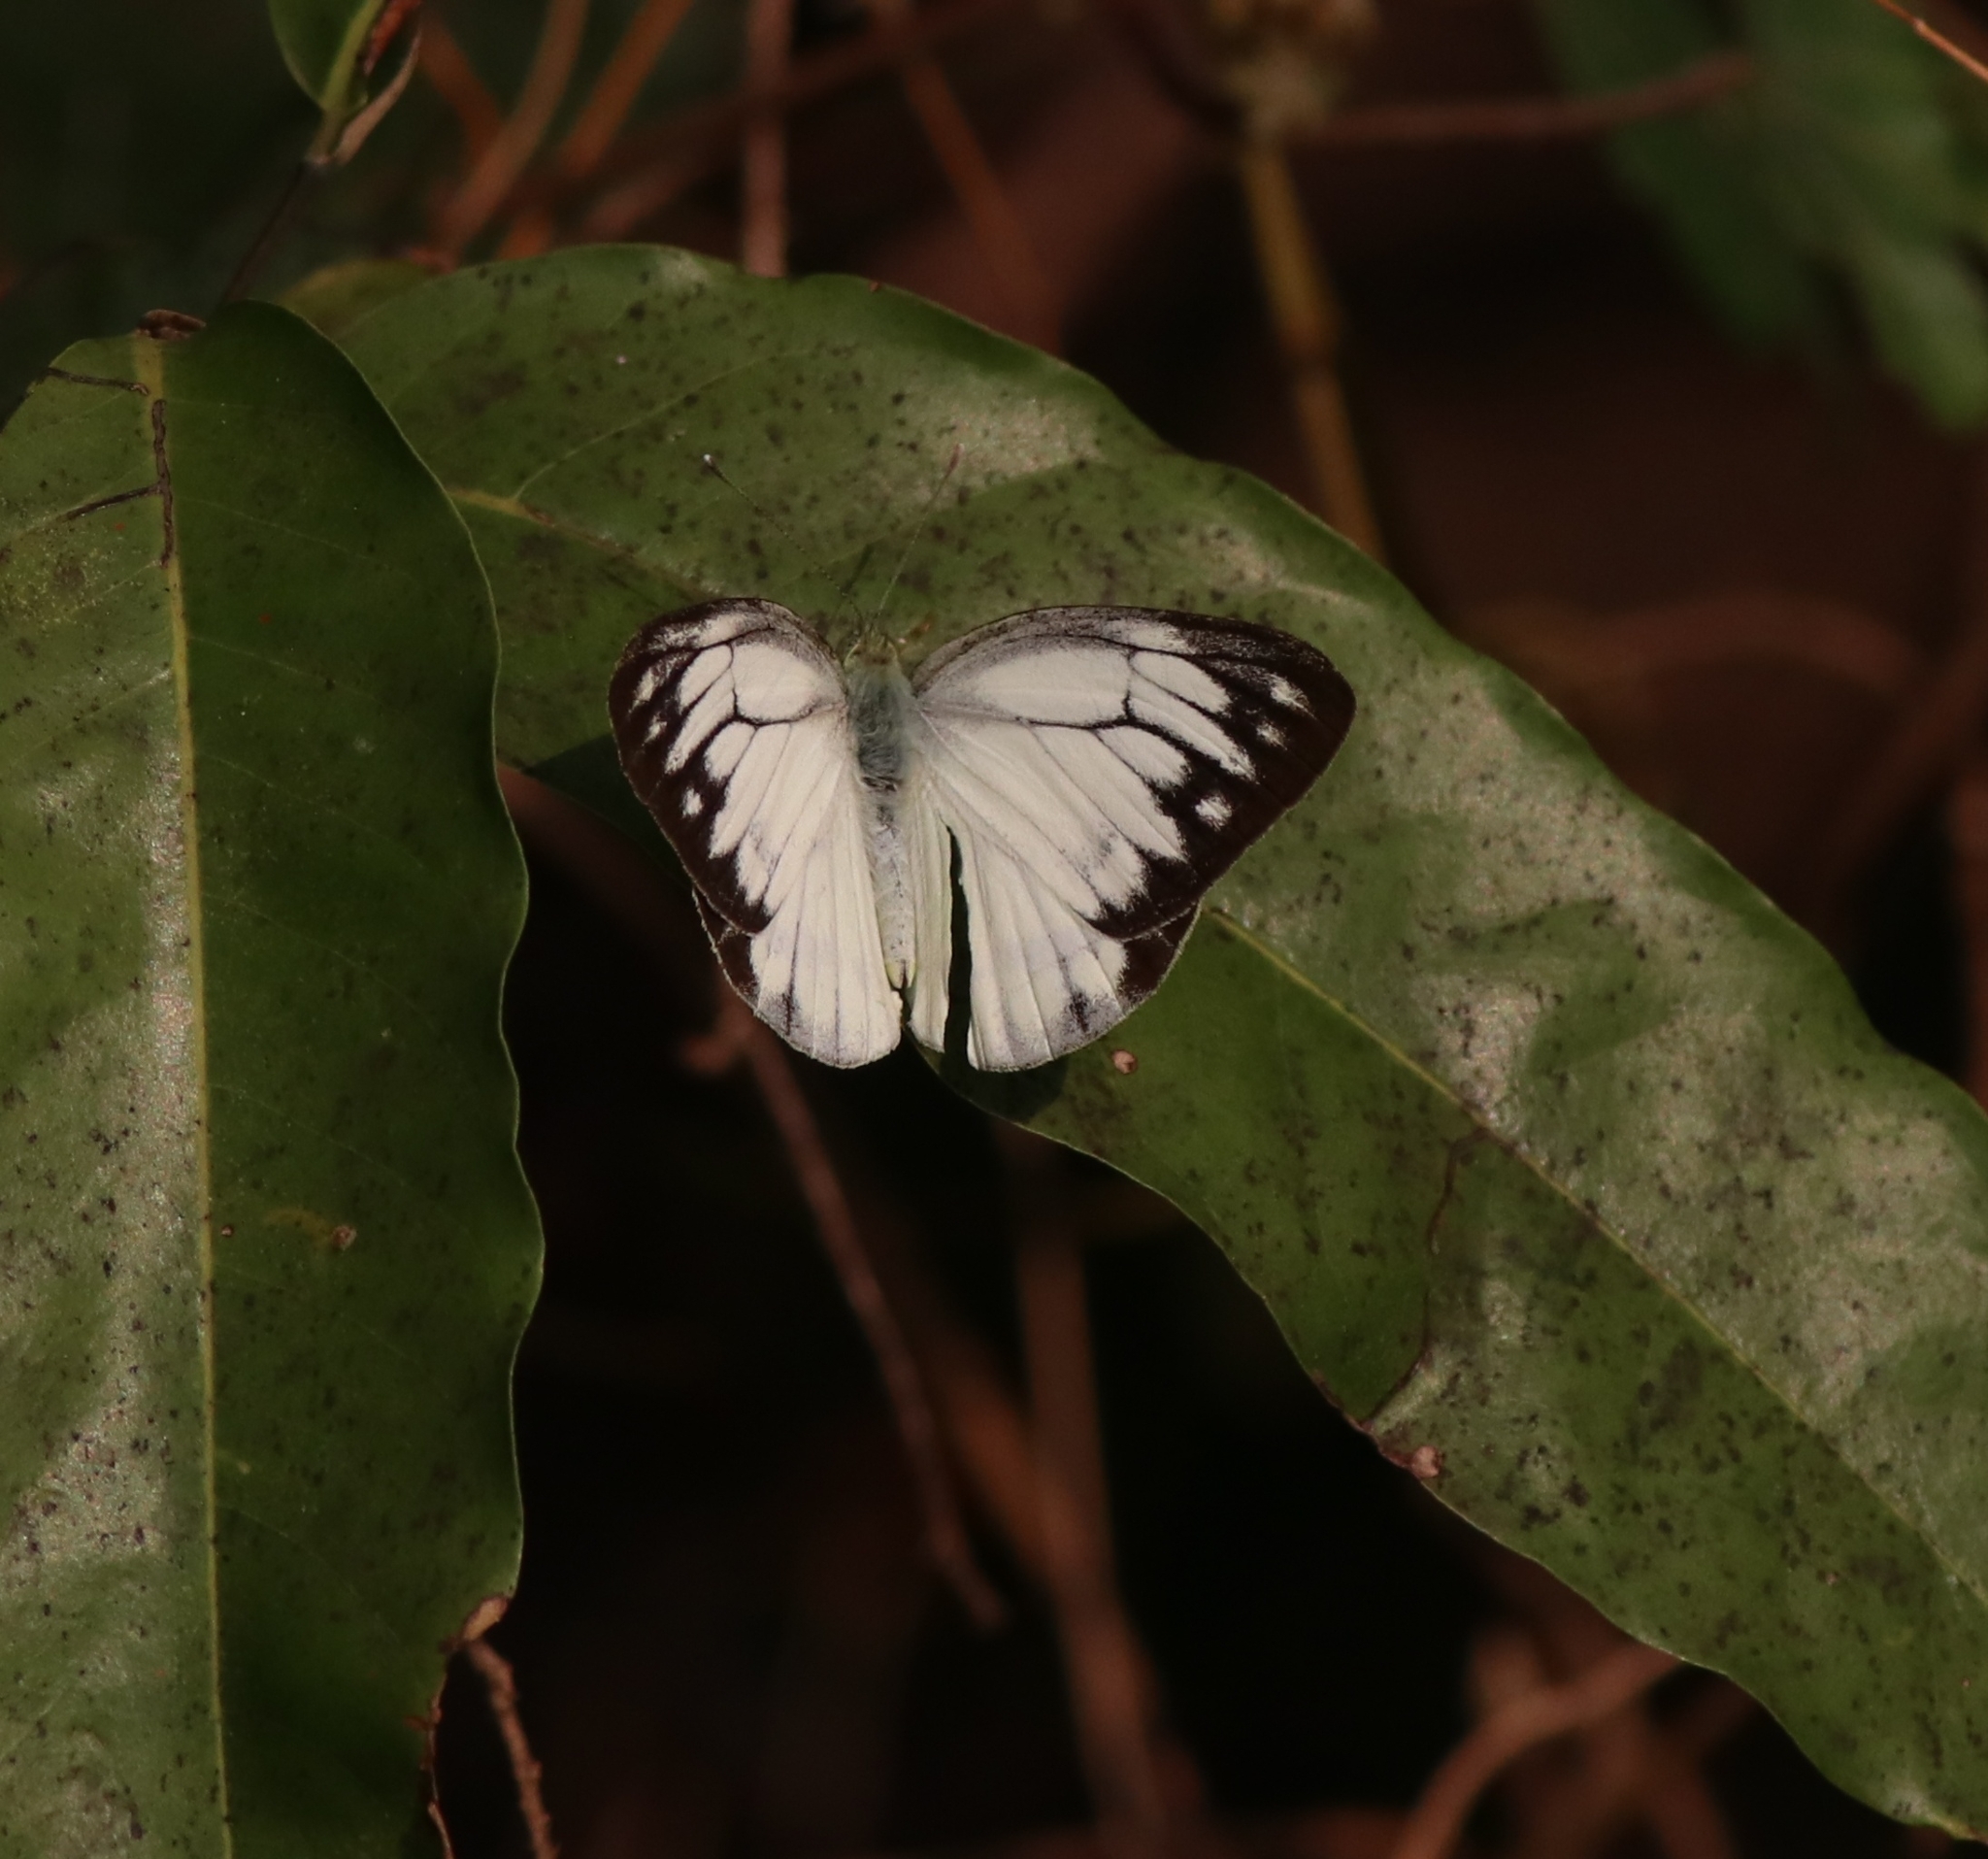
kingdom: Animalia
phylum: Arthropoda
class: Insecta
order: Lepidoptera
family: Pieridae
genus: Cepora
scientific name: Cepora nerissa
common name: Common gull
